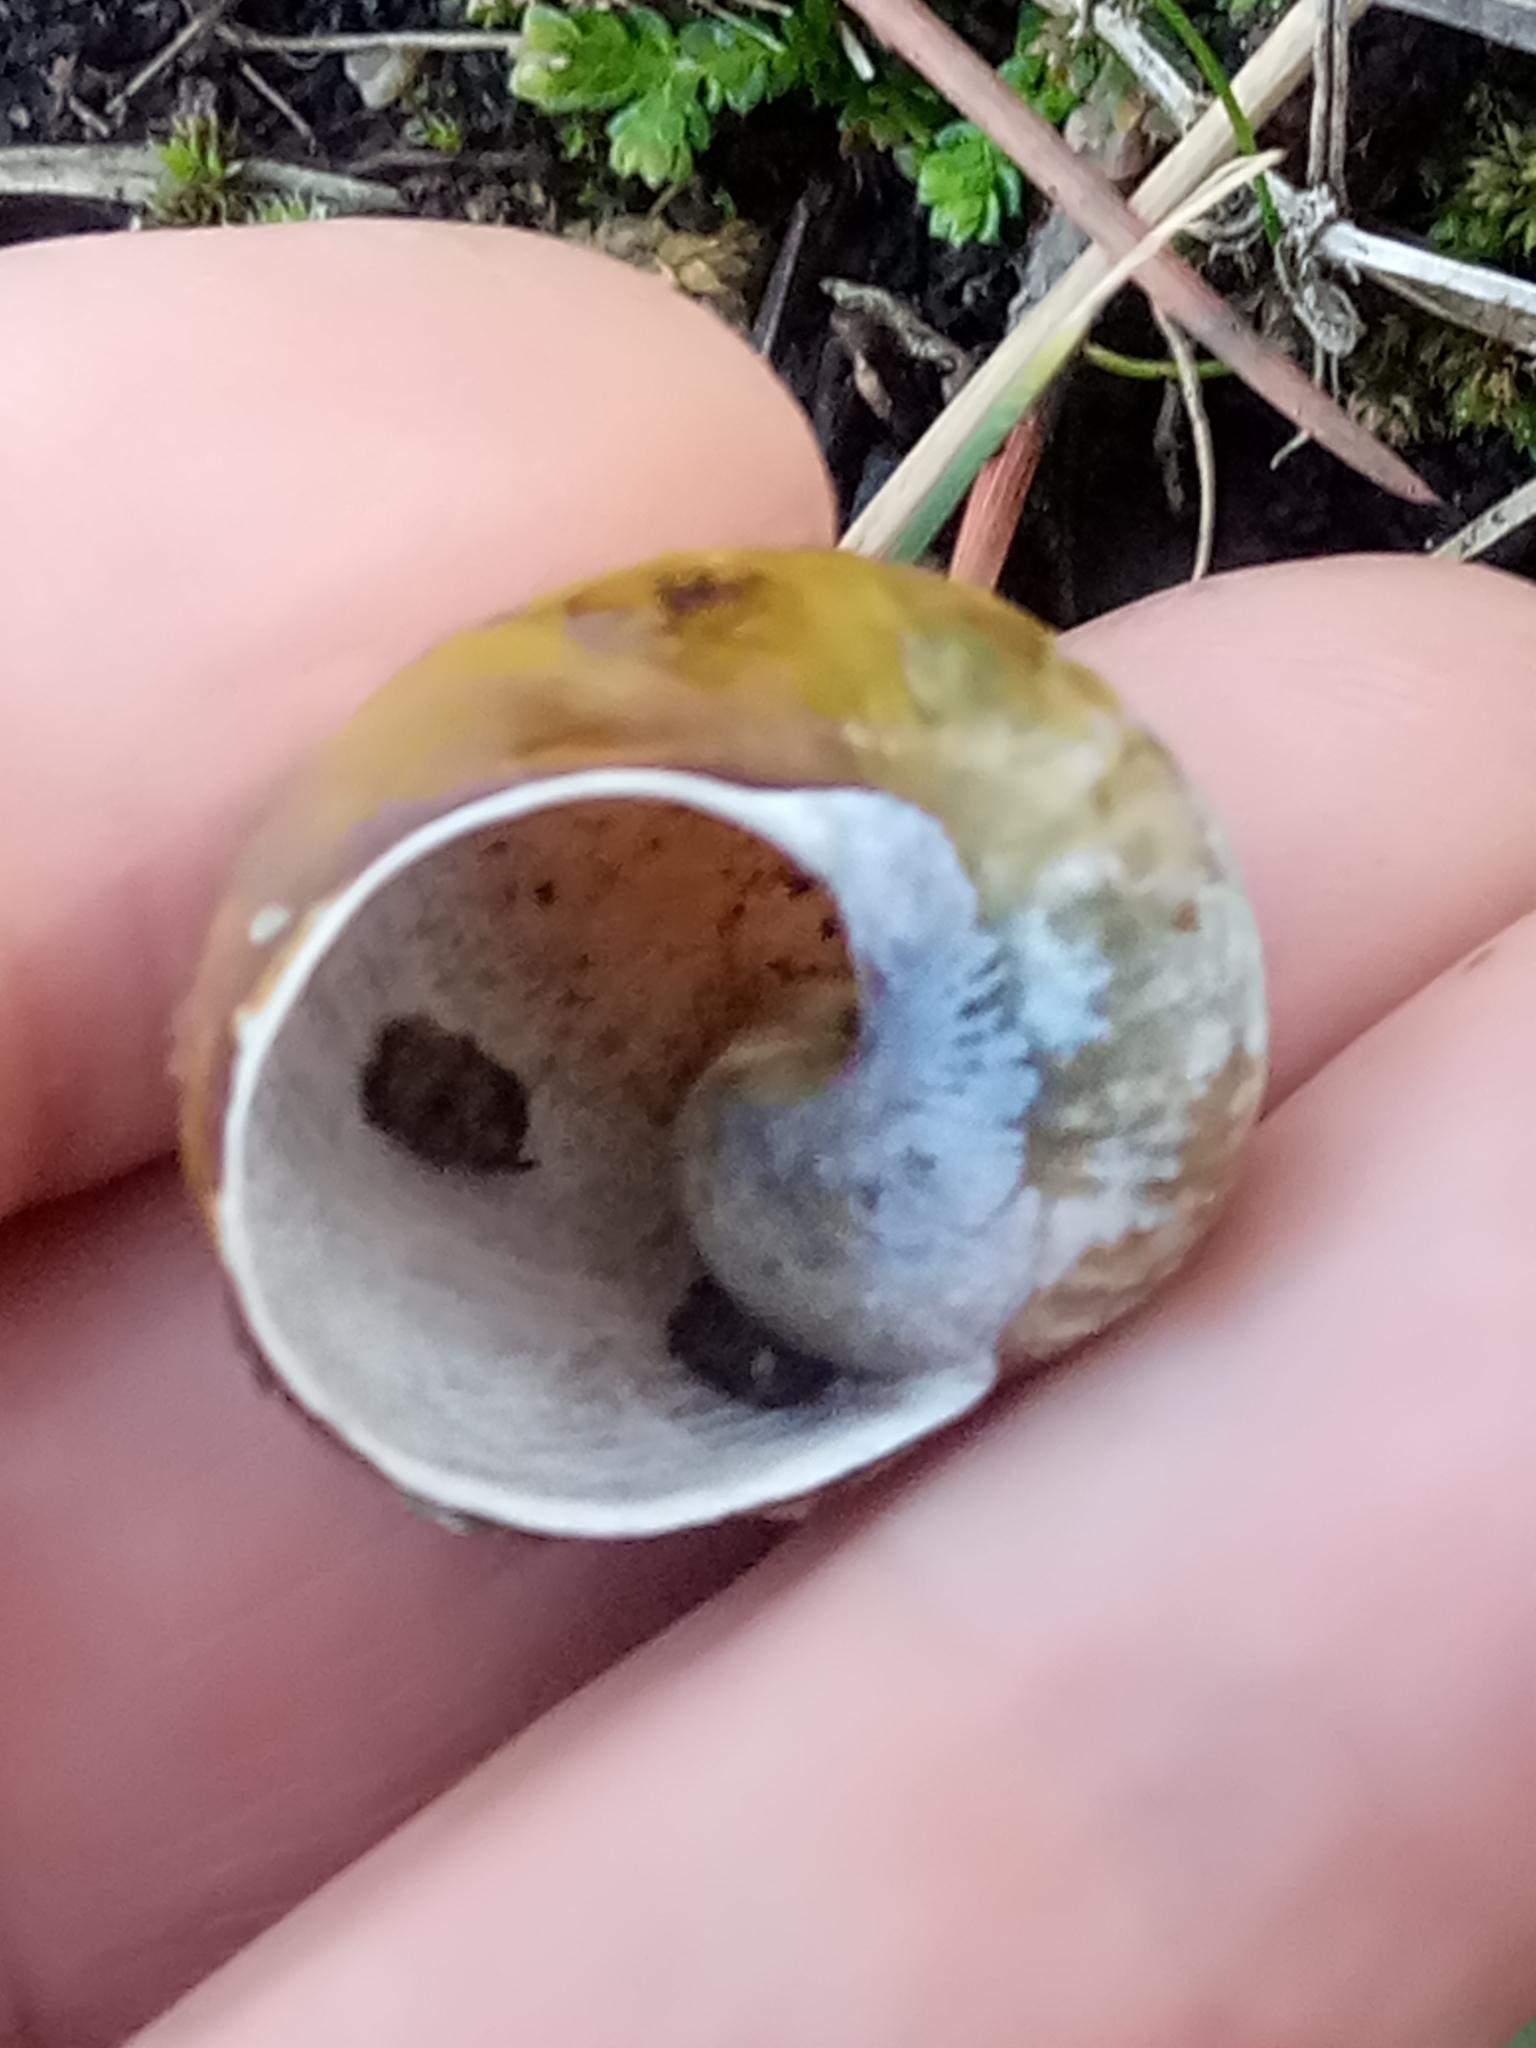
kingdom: Animalia
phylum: Mollusca
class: Gastropoda
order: Stylommatophora
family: Helicidae
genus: Cantareus
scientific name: Cantareus apertus
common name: Green gardensnail
